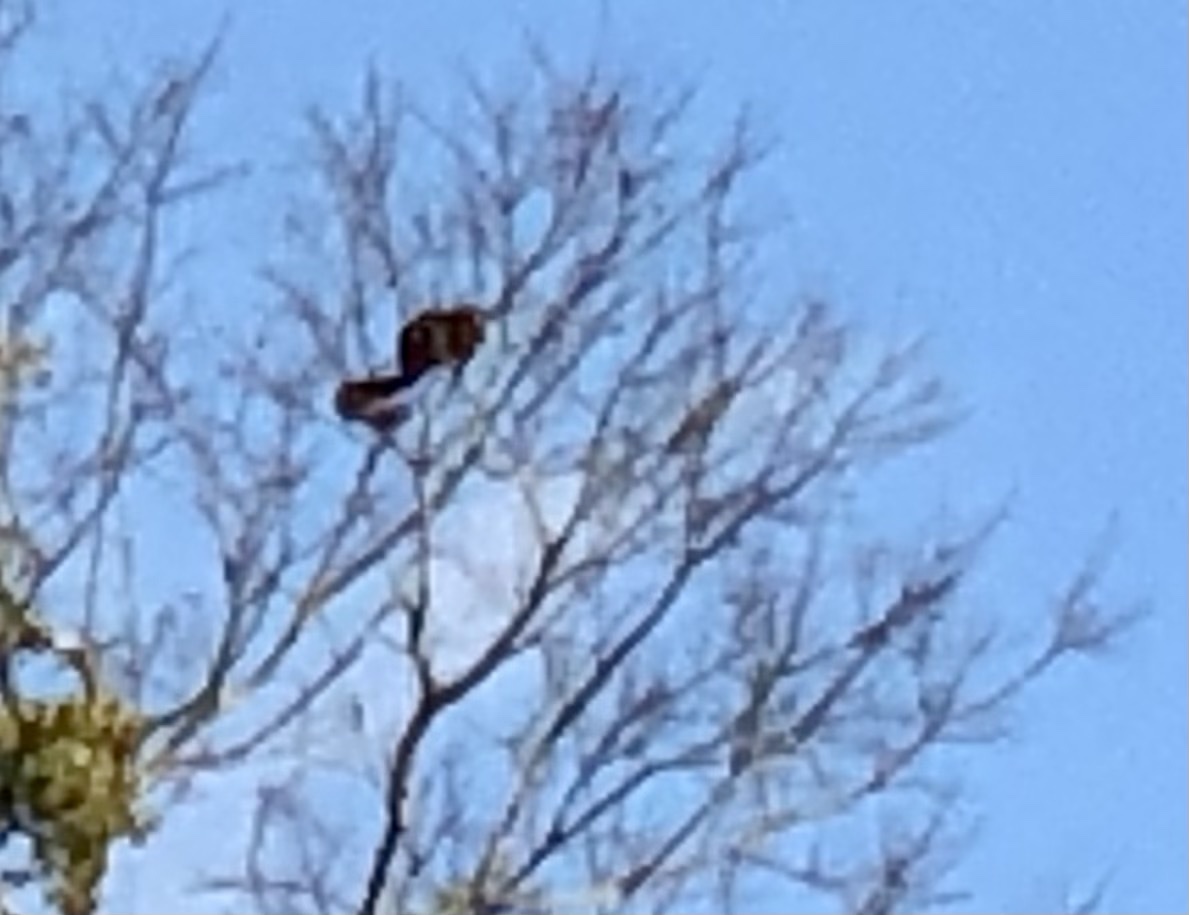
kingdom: Animalia
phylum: Chordata
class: Mammalia
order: Rodentia
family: Sciuridae
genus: Sciurus
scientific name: Sciurus niger
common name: Fox squirrel
